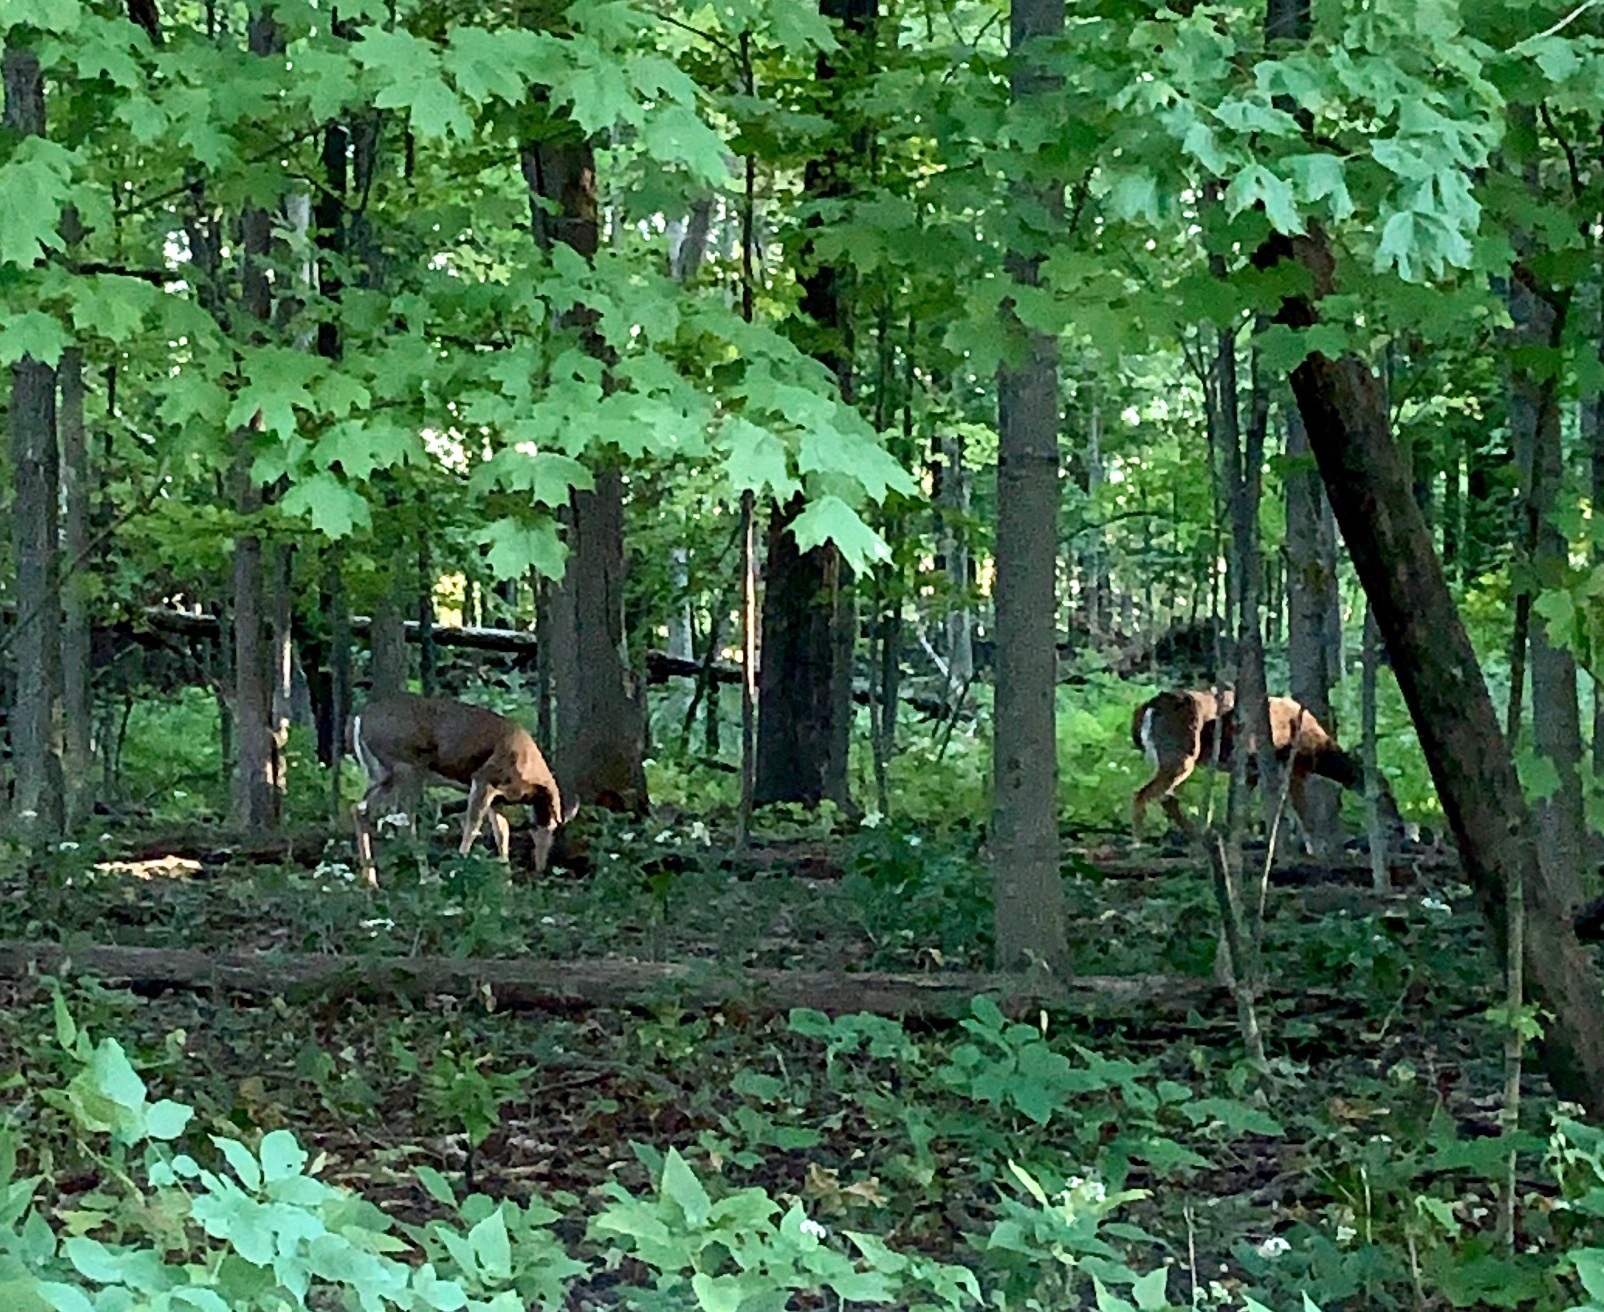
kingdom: Animalia
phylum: Chordata
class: Mammalia
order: Artiodactyla
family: Cervidae
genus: Odocoileus
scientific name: Odocoileus virginianus
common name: White-tailed deer
